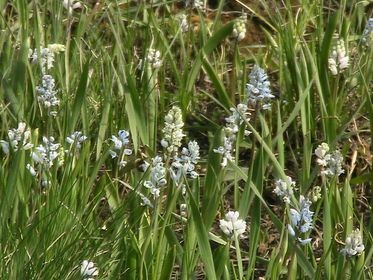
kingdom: Plantae
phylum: Tracheophyta
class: Liliopsida
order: Asparagales
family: Asparagaceae
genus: Hyacinthella
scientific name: Hyacinthella leucophaea
